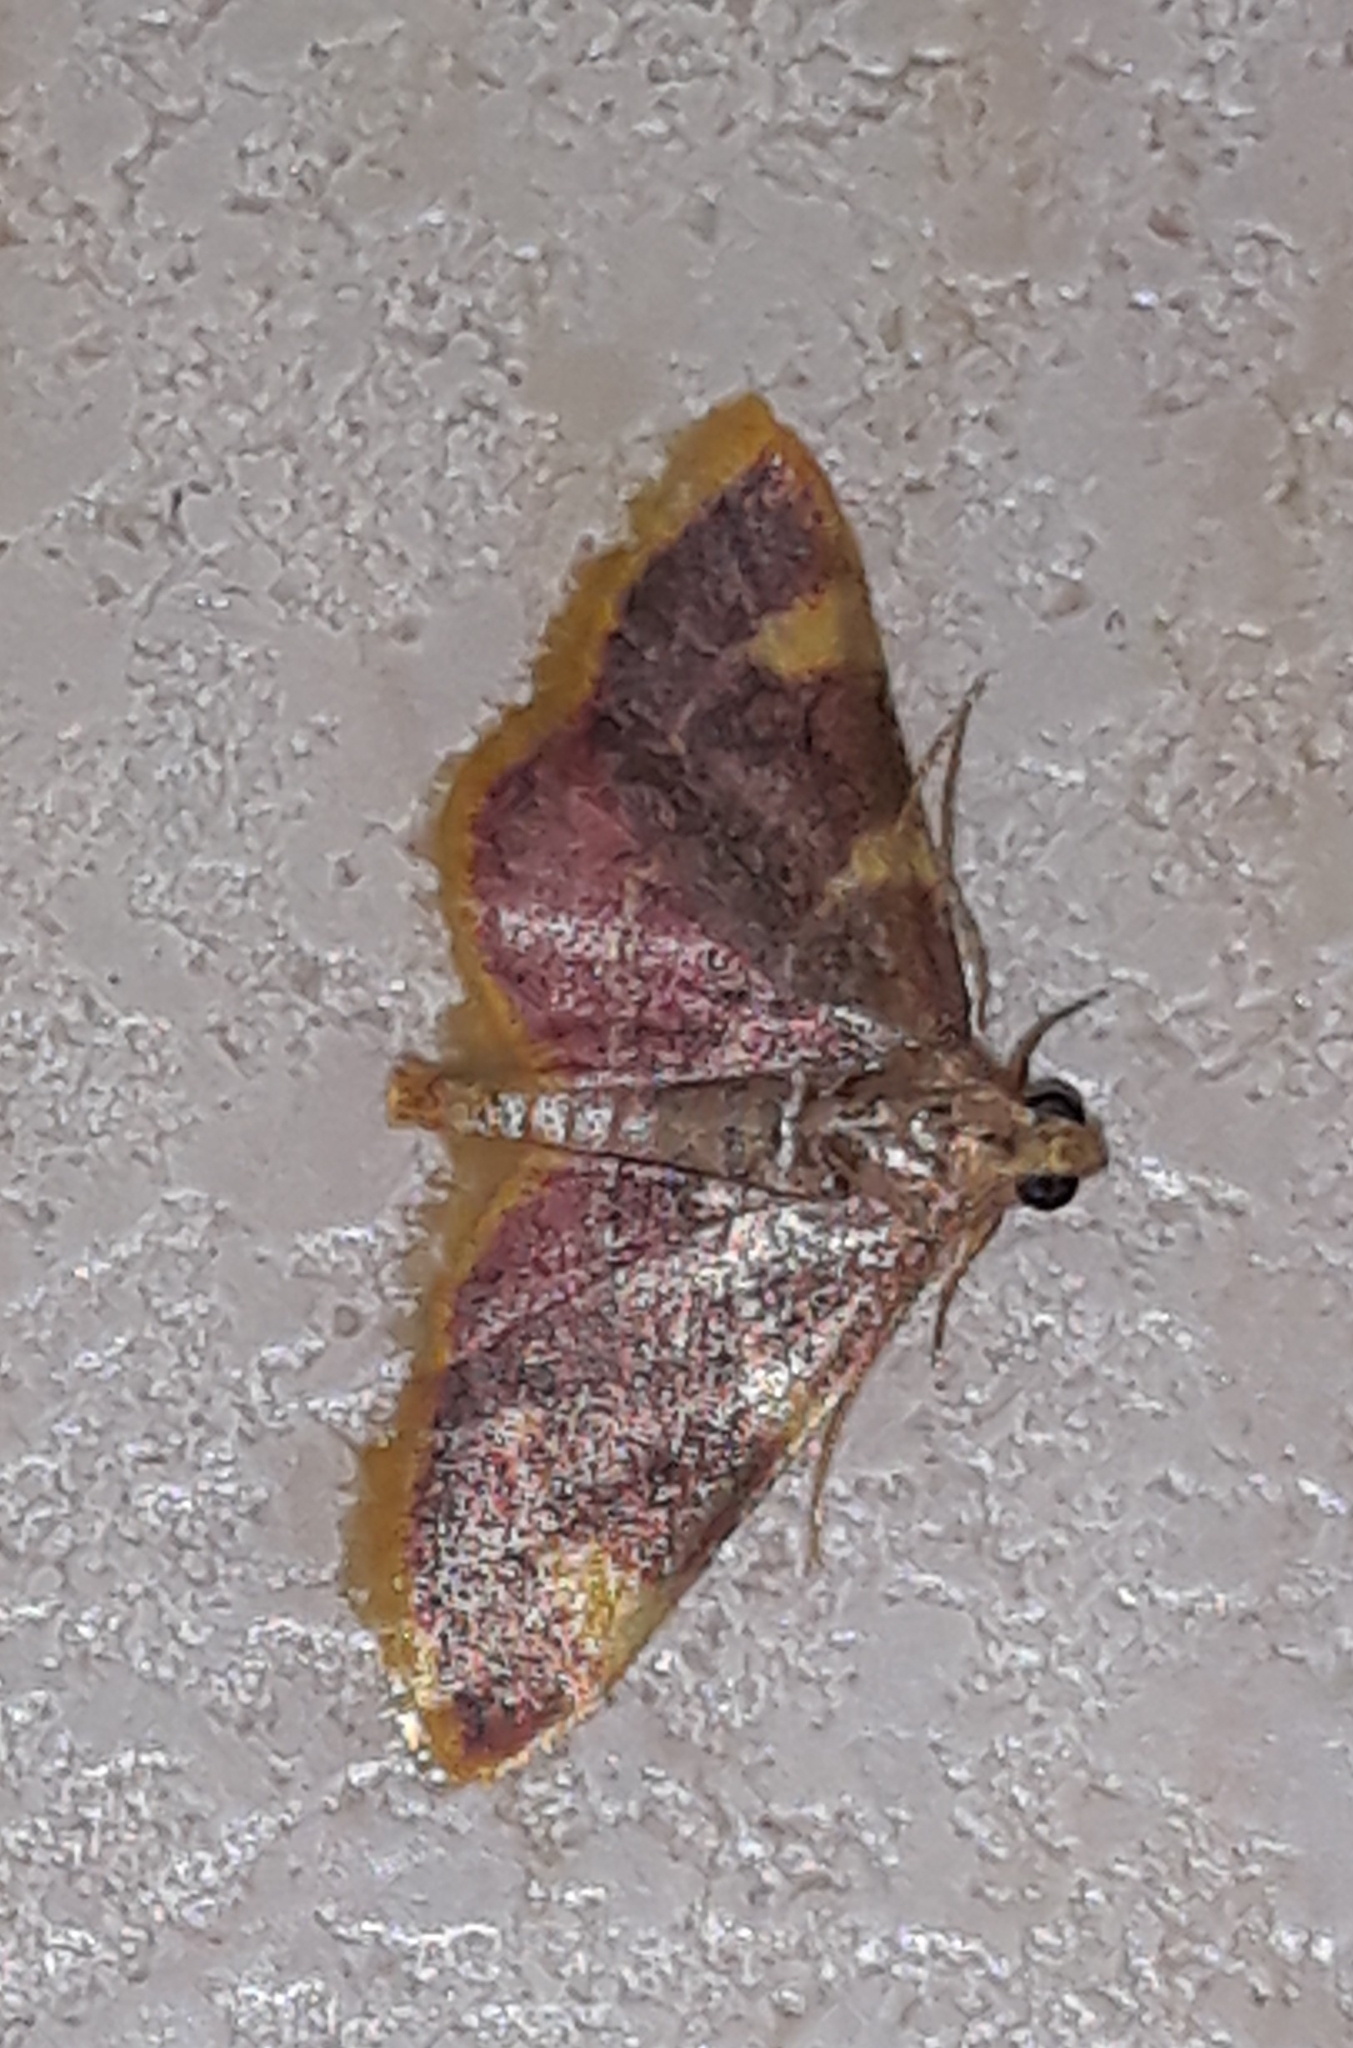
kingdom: Animalia
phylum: Arthropoda
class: Insecta
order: Lepidoptera
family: Pyralidae
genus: Hypsopygia
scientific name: Hypsopygia costalis
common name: Gold triangle
